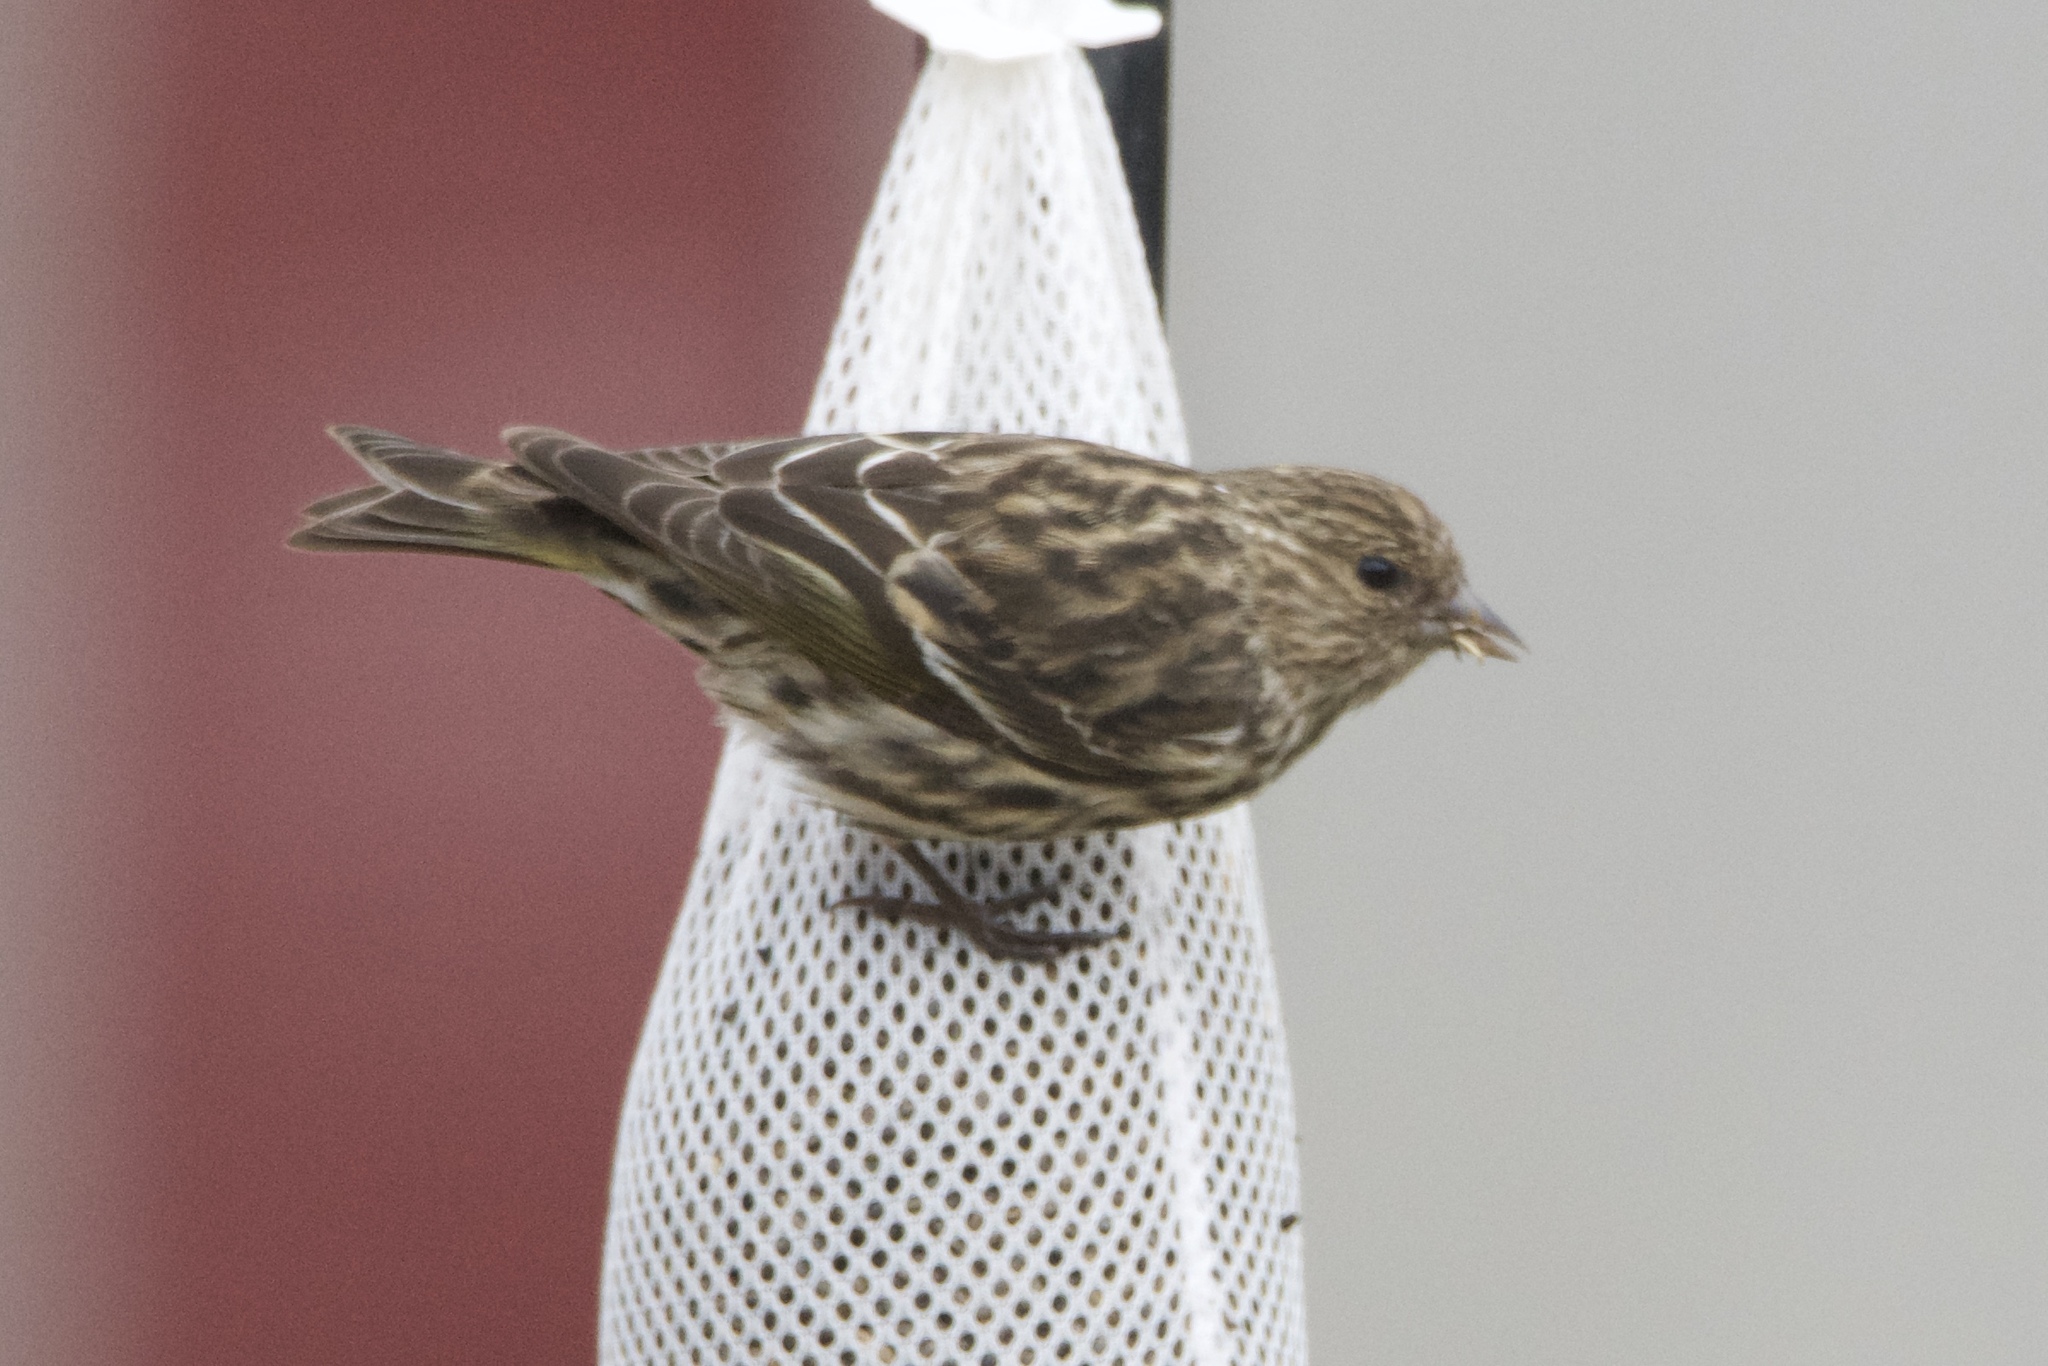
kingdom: Animalia
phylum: Chordata
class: Aves
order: Passeriformes
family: Fringillidae
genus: Spinus
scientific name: Spinus pinus
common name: Pine siskin
